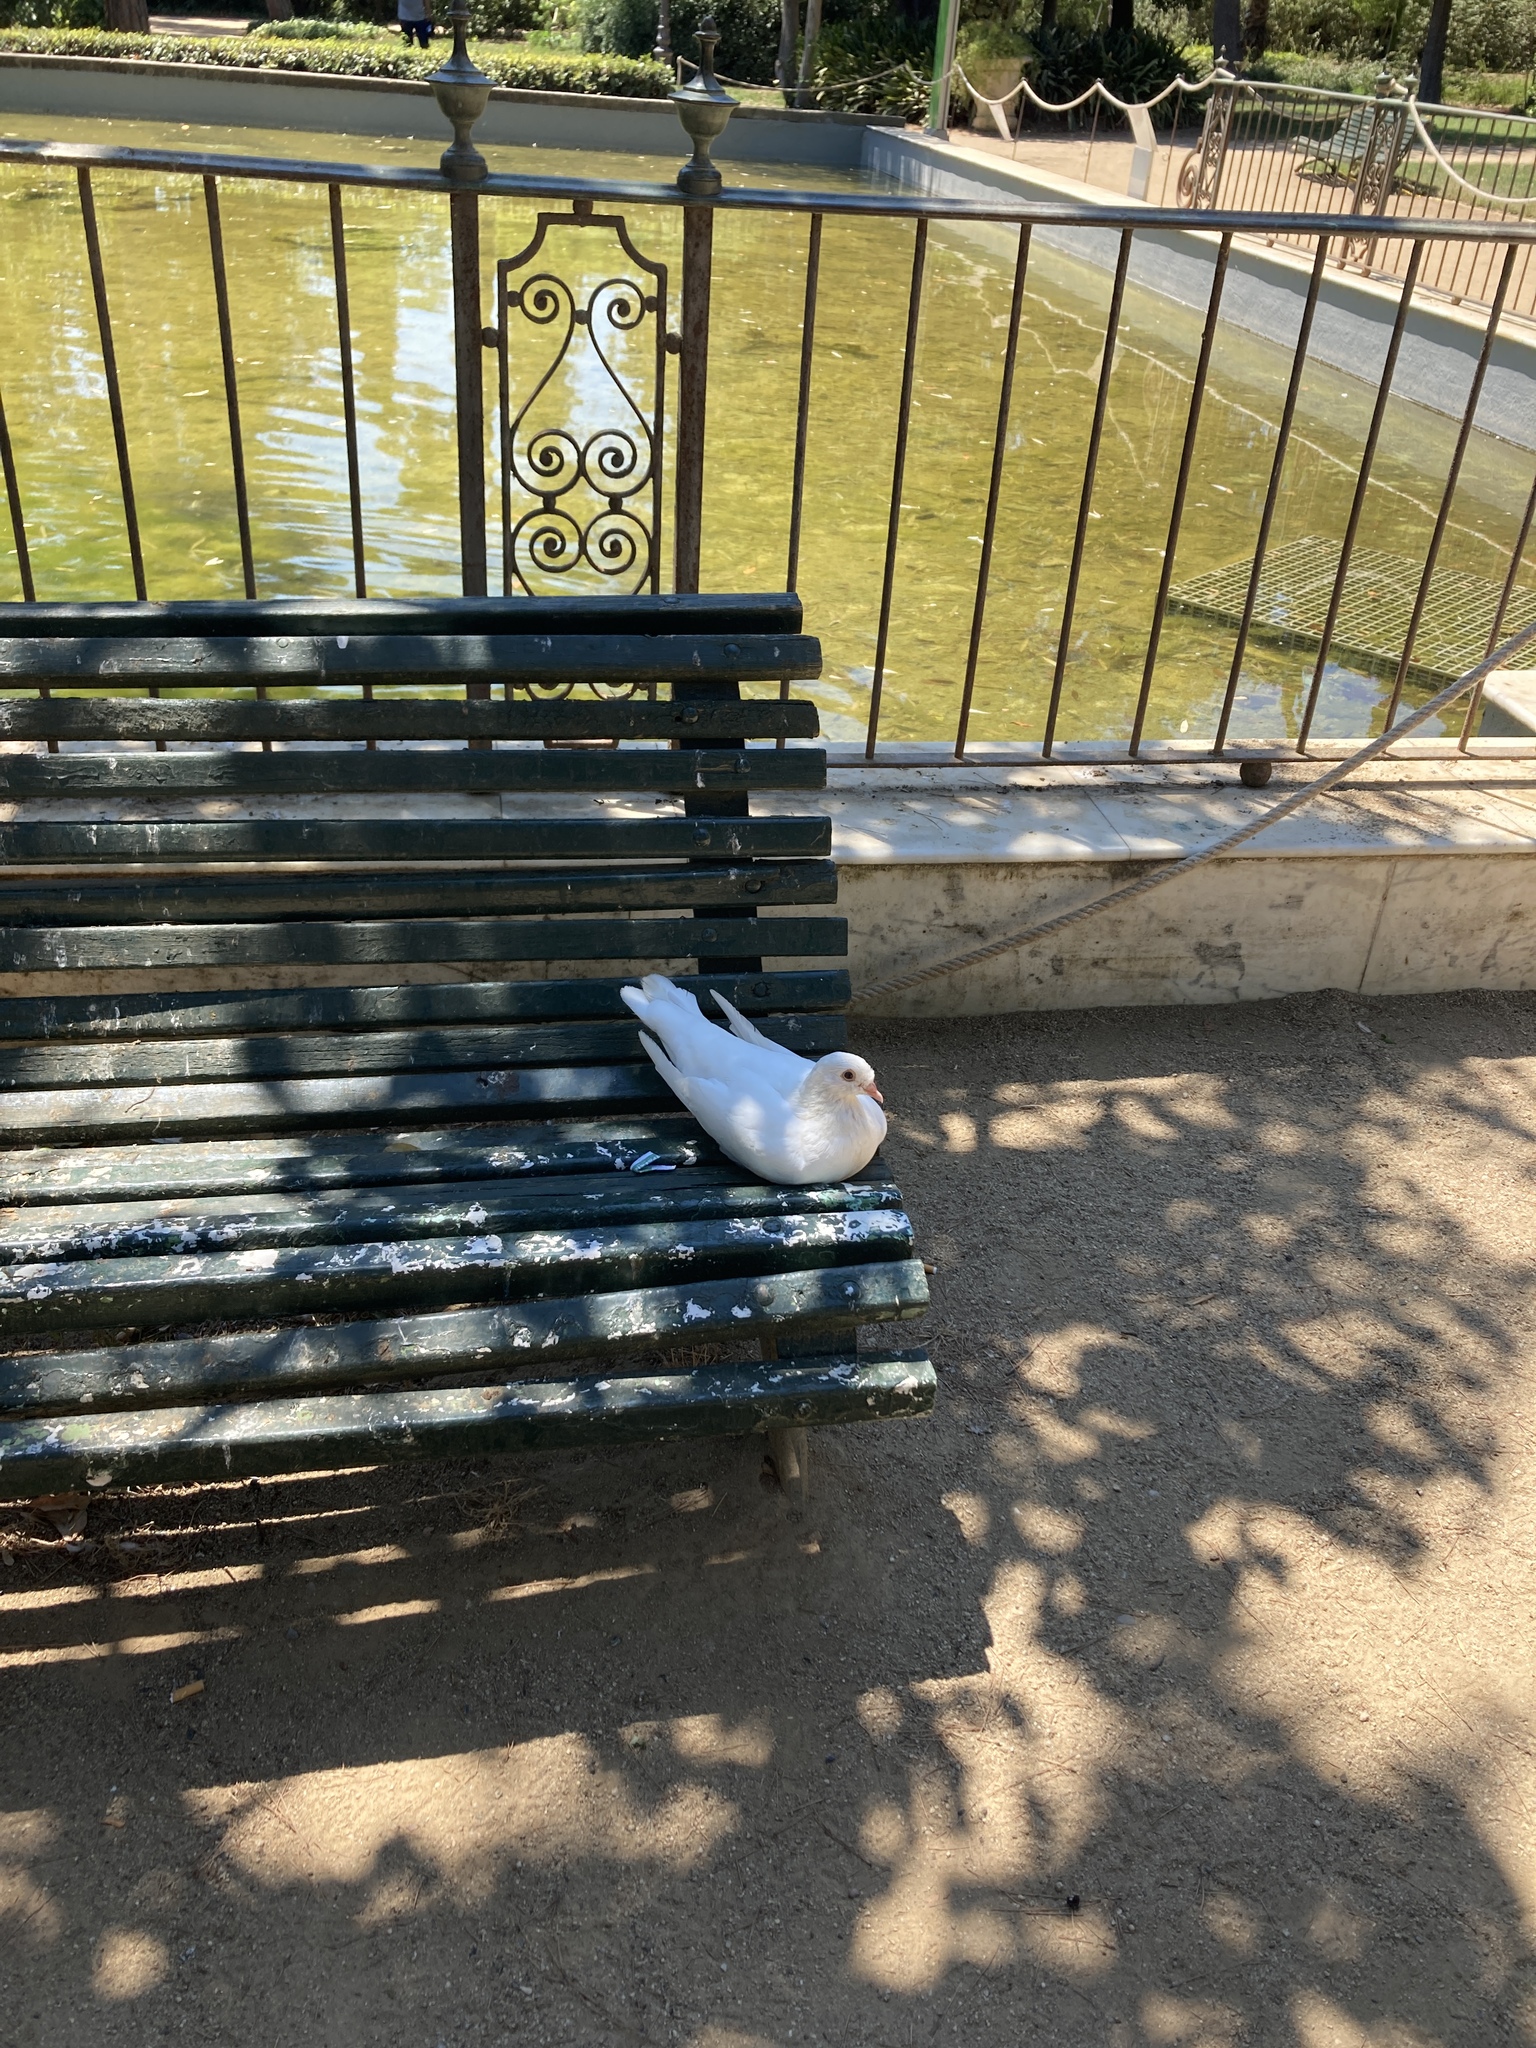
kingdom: Animalia
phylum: Chordata
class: Aves
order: Columbiformes
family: Columbidae
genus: Columba
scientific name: Columba livia
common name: Rock pigeon
